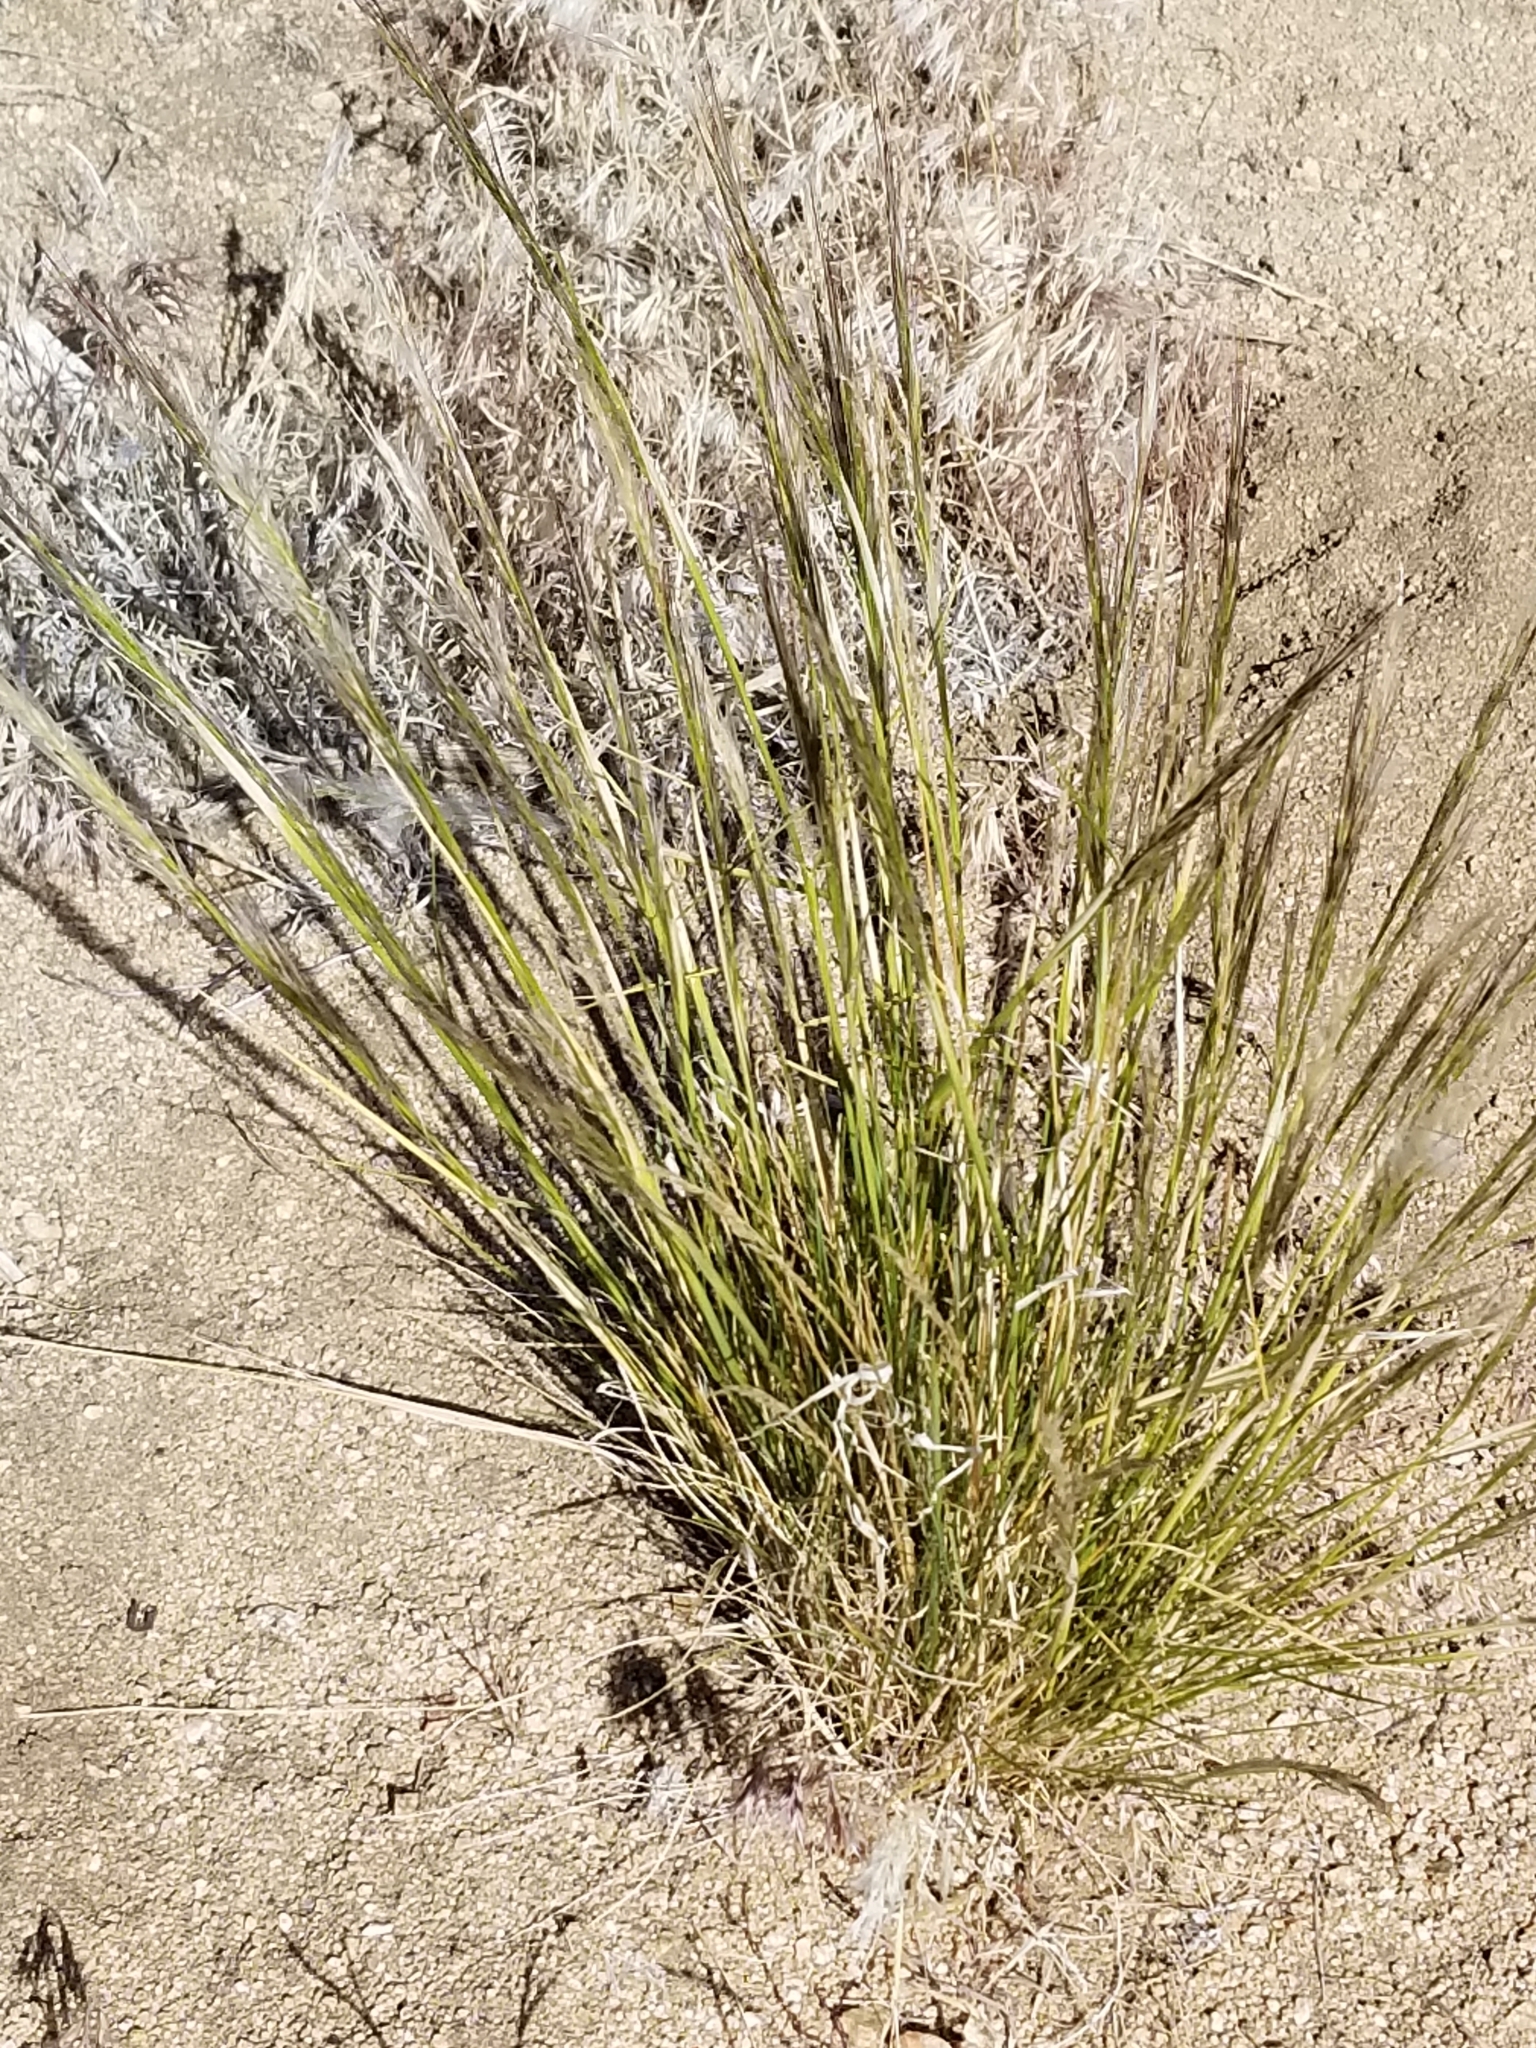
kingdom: Plantae
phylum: Tracheophyta
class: Liliopsida
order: Poales
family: Poaceae
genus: Pappostipa
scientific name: Pappostipa speciosa
